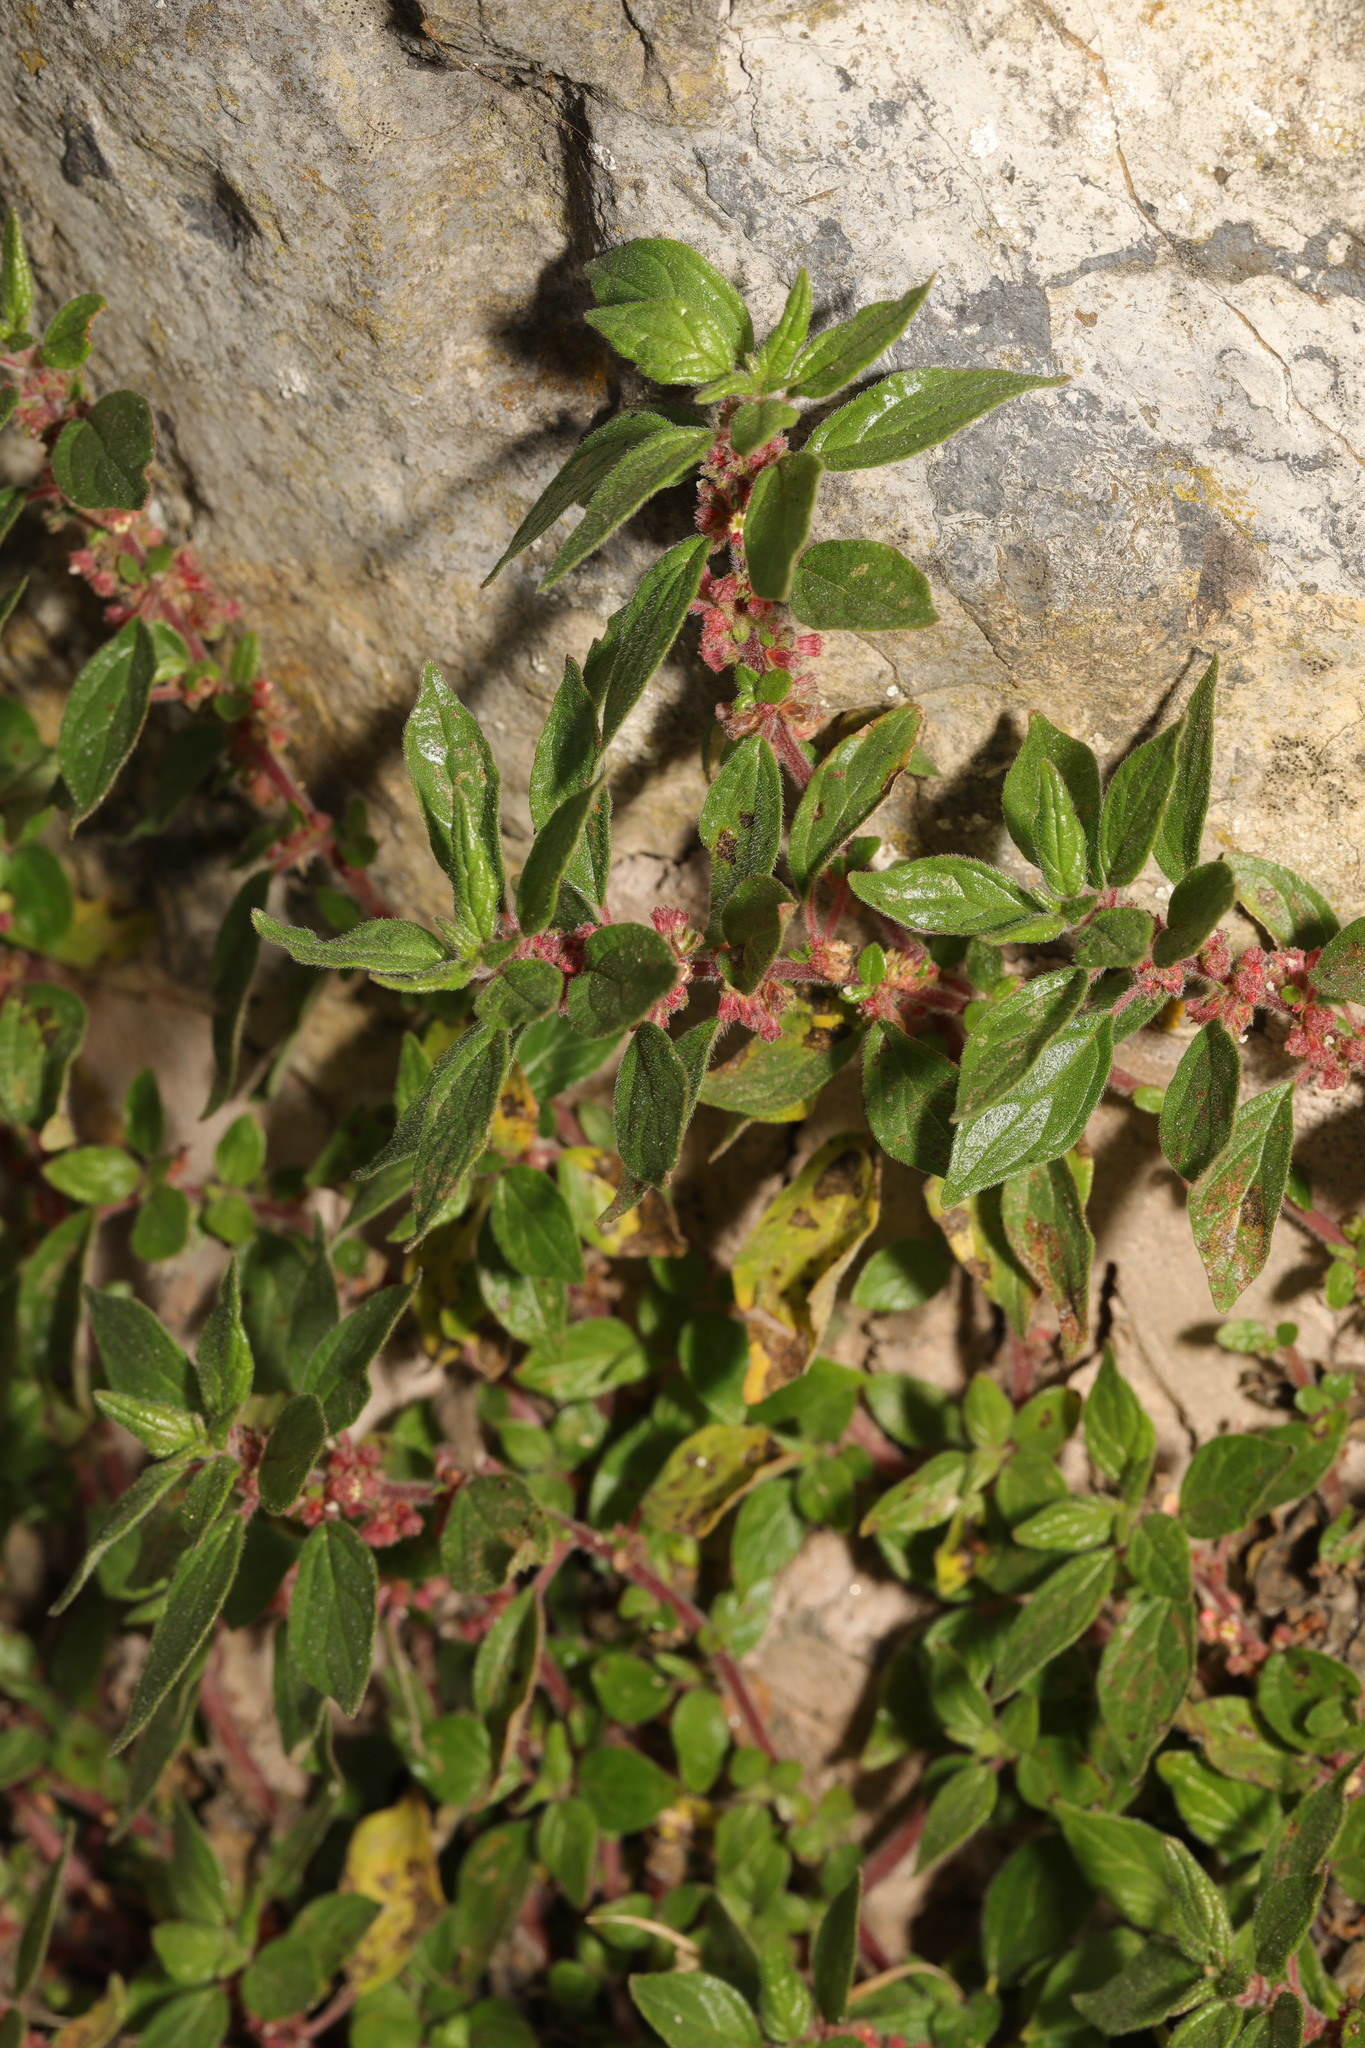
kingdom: Plantae
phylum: Tracheophyta
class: Magnoliopsida
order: Rosales
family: Urticaceae
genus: Parietaria
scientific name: Parietaria judaica
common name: Pellitory-of-the-wall
